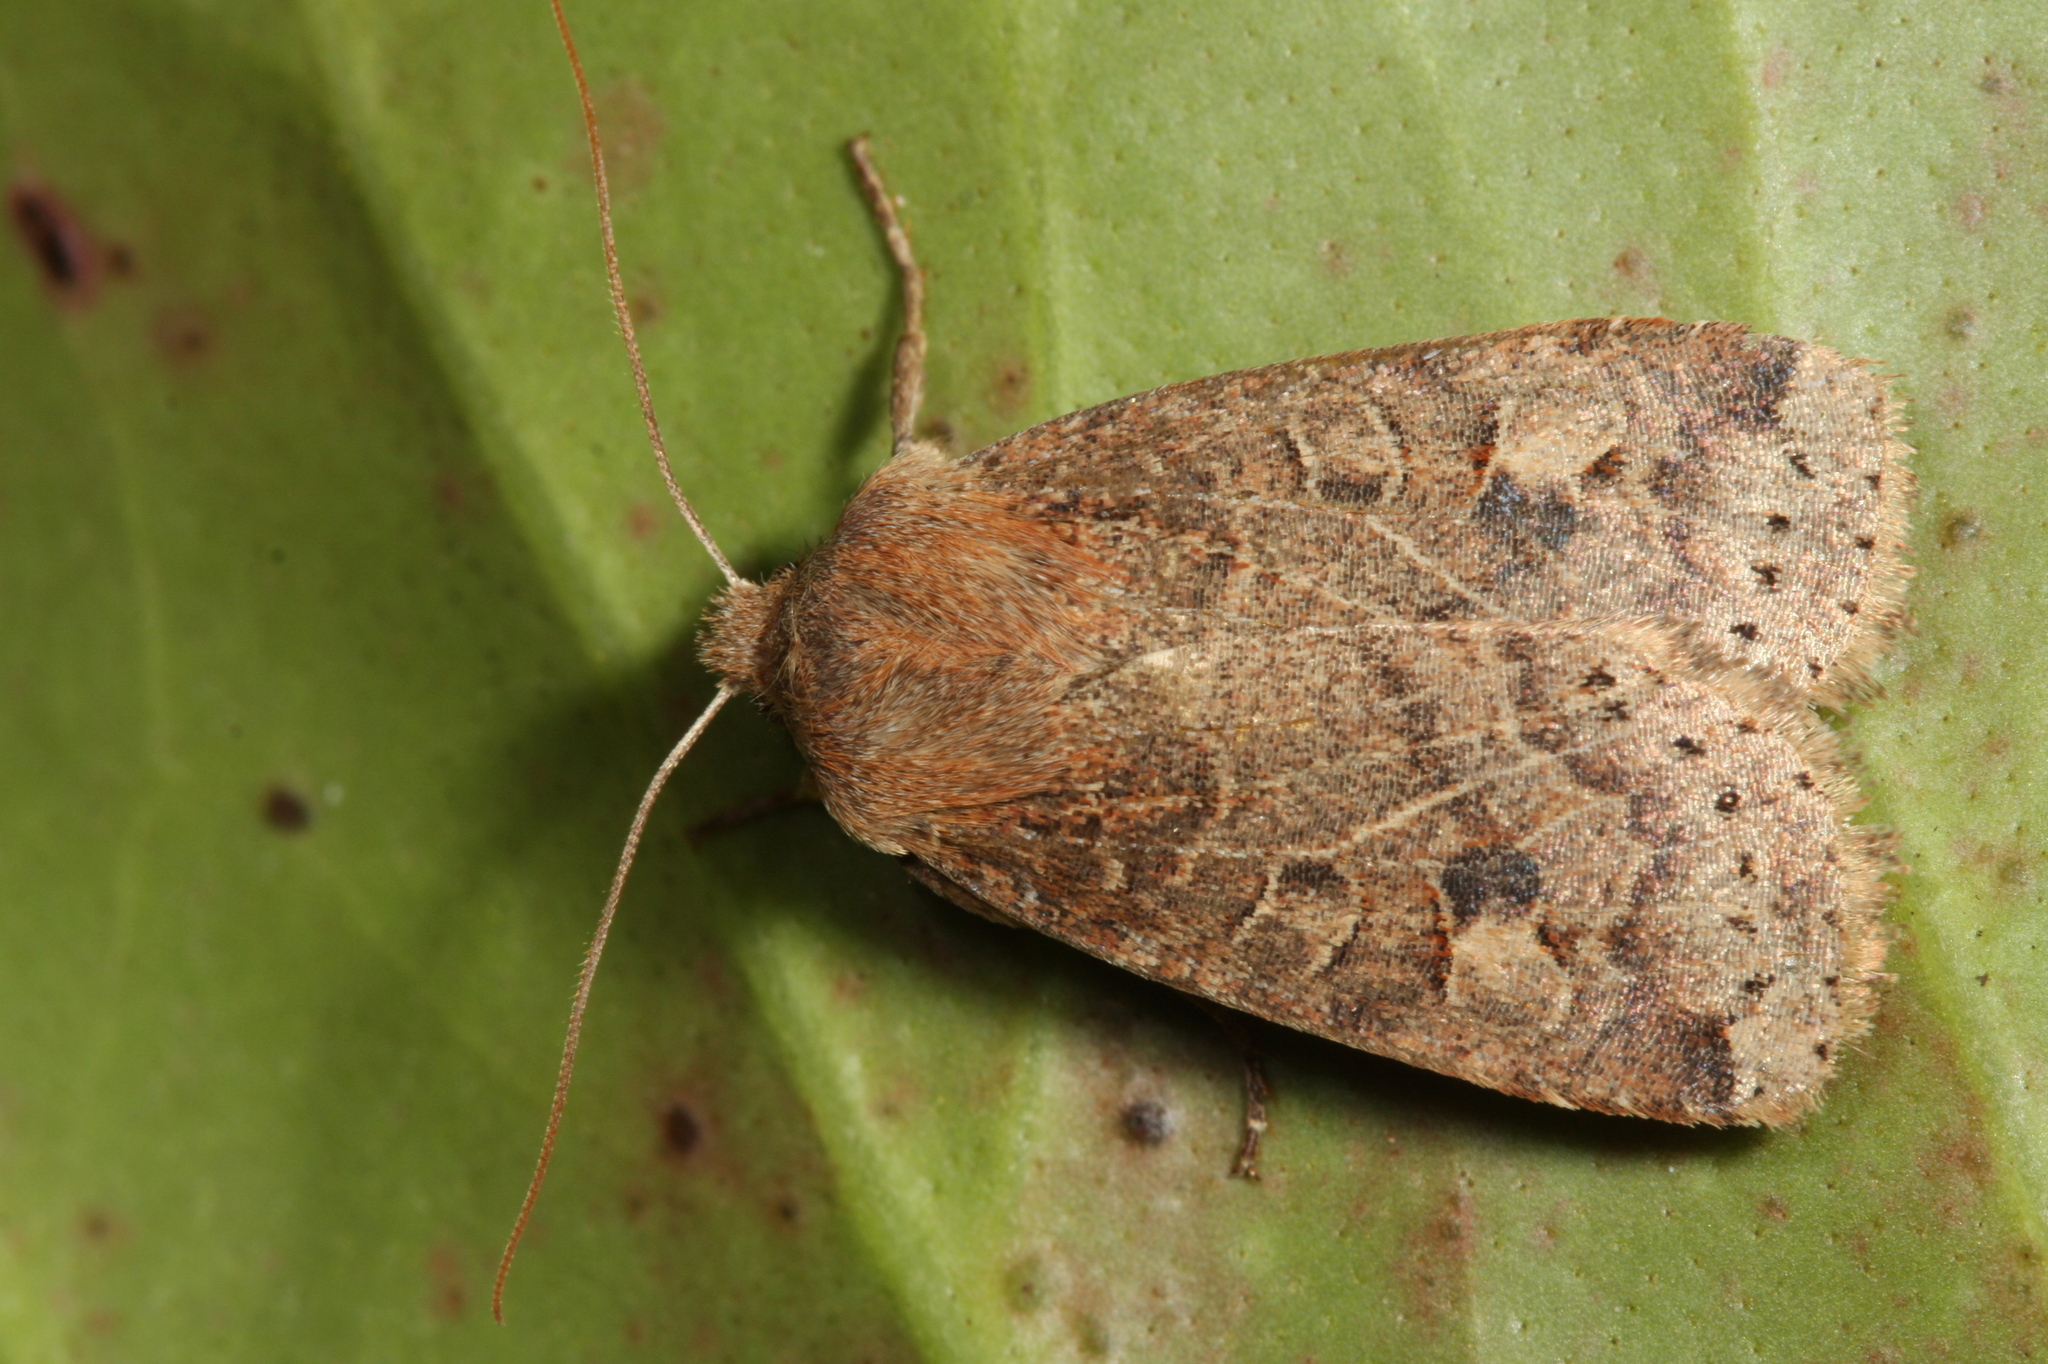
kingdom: Animalia
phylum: Arthropoda
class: Insecta
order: Lepidoptera
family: Noctuidae
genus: Conistra
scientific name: Conistra vaccinii
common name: Chestnut
